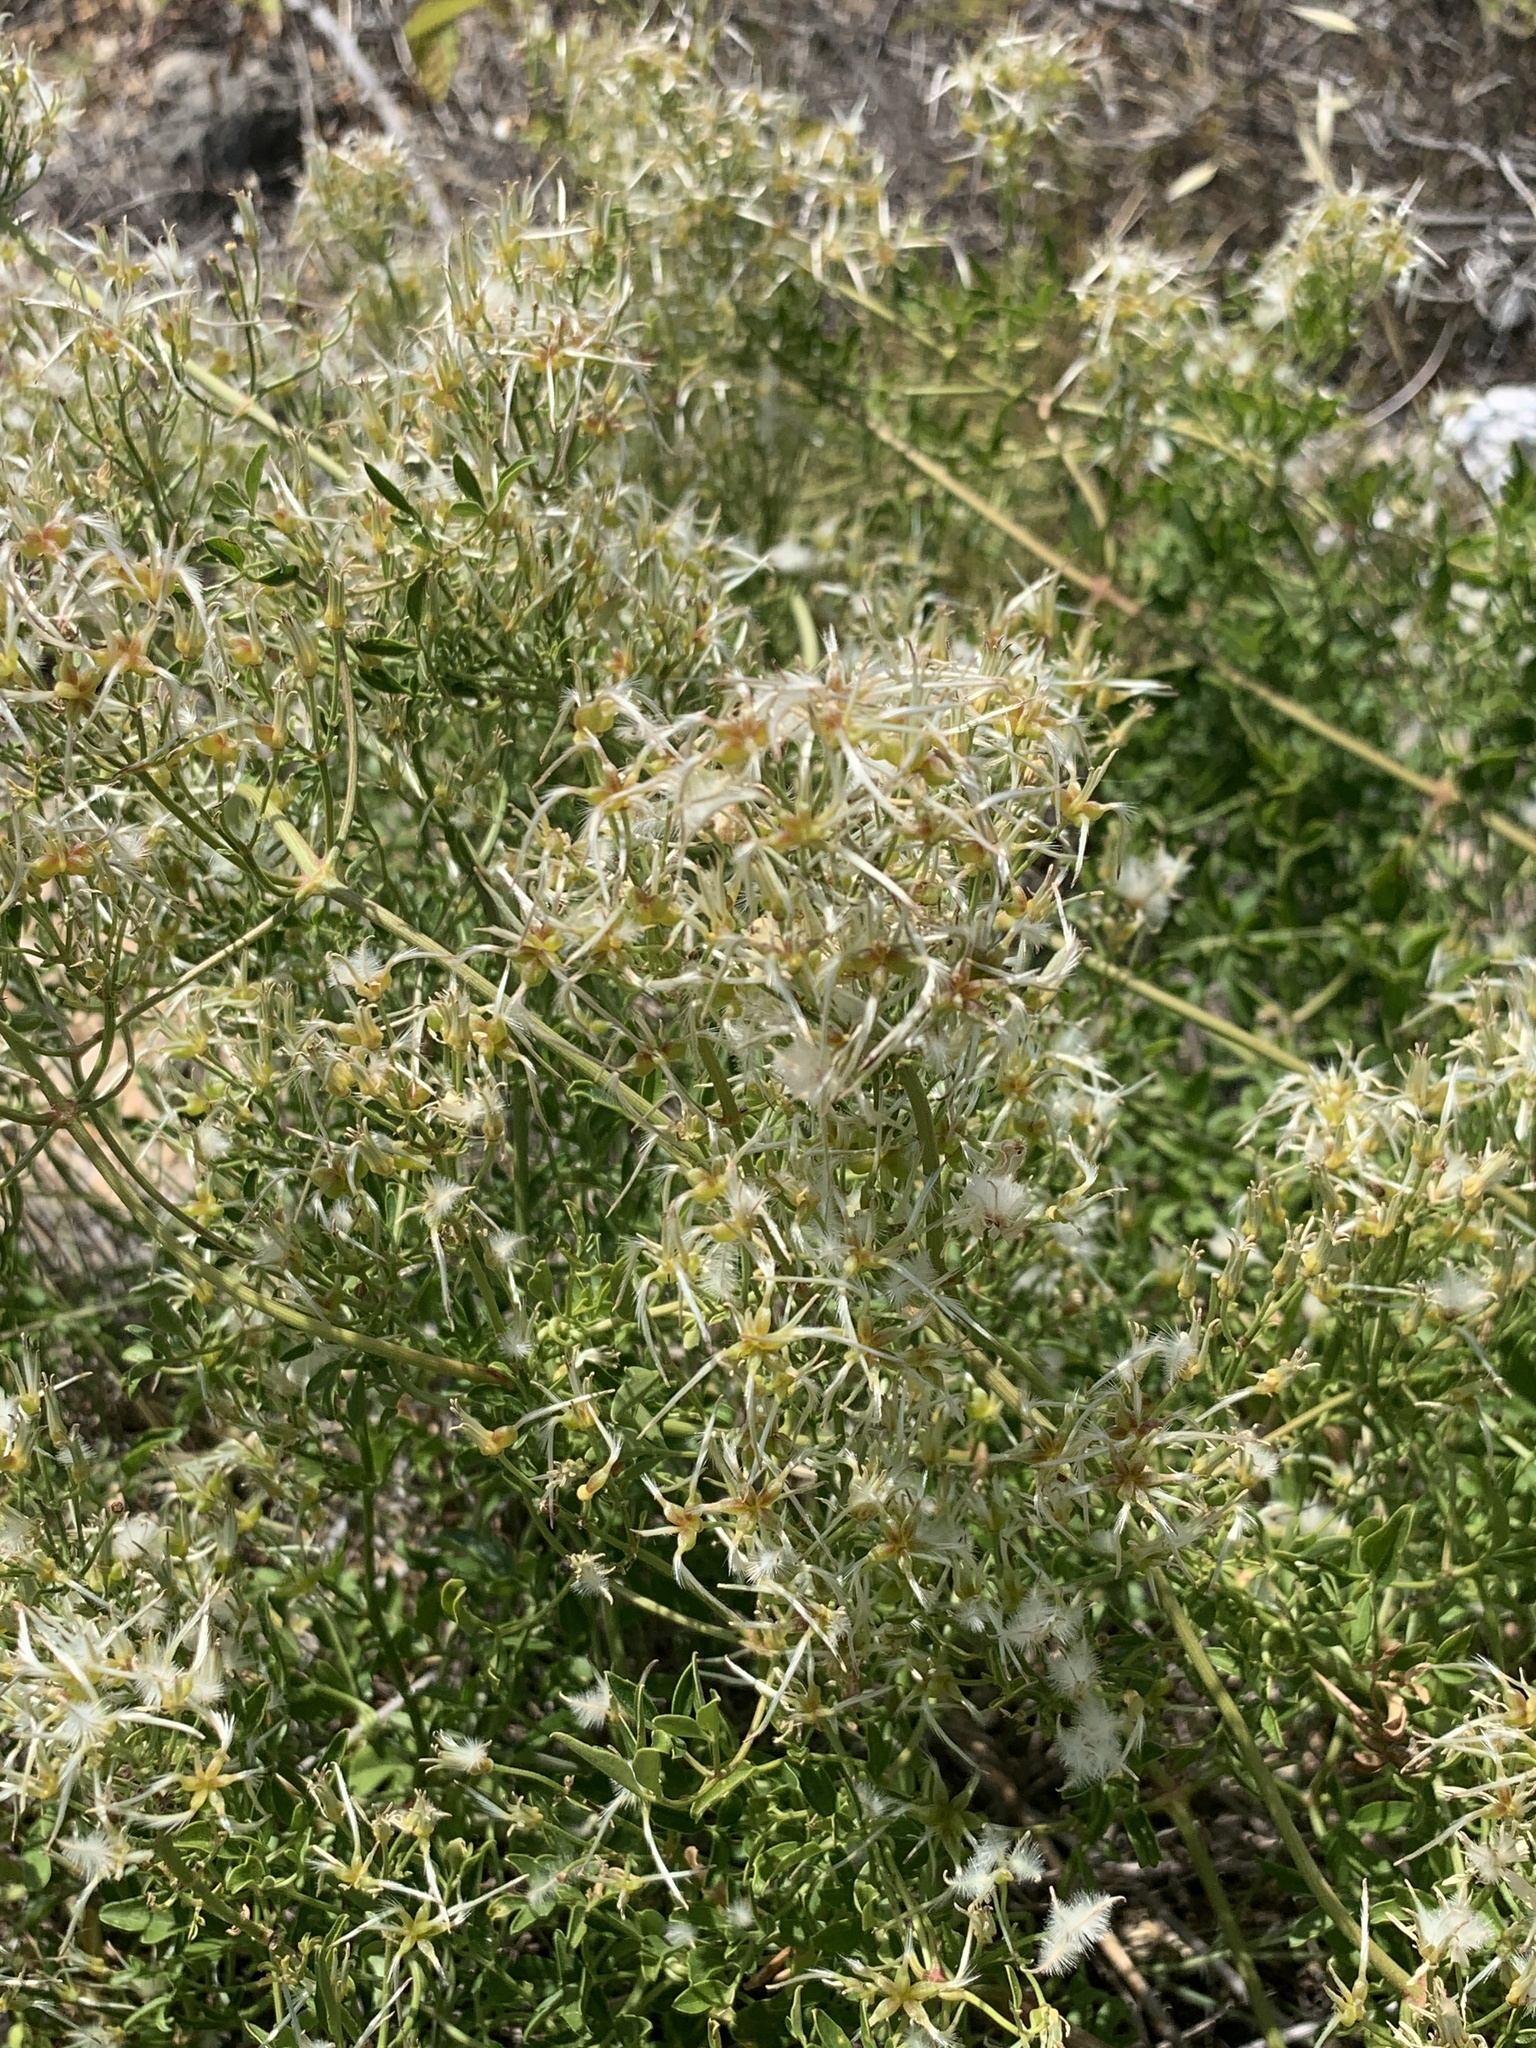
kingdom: Plantae
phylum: Tracheophyta
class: Magnoliopsida
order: Ranunculales
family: Ranunculaceae
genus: Clematis
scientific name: Clematis flammula
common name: Virgin's-bower
